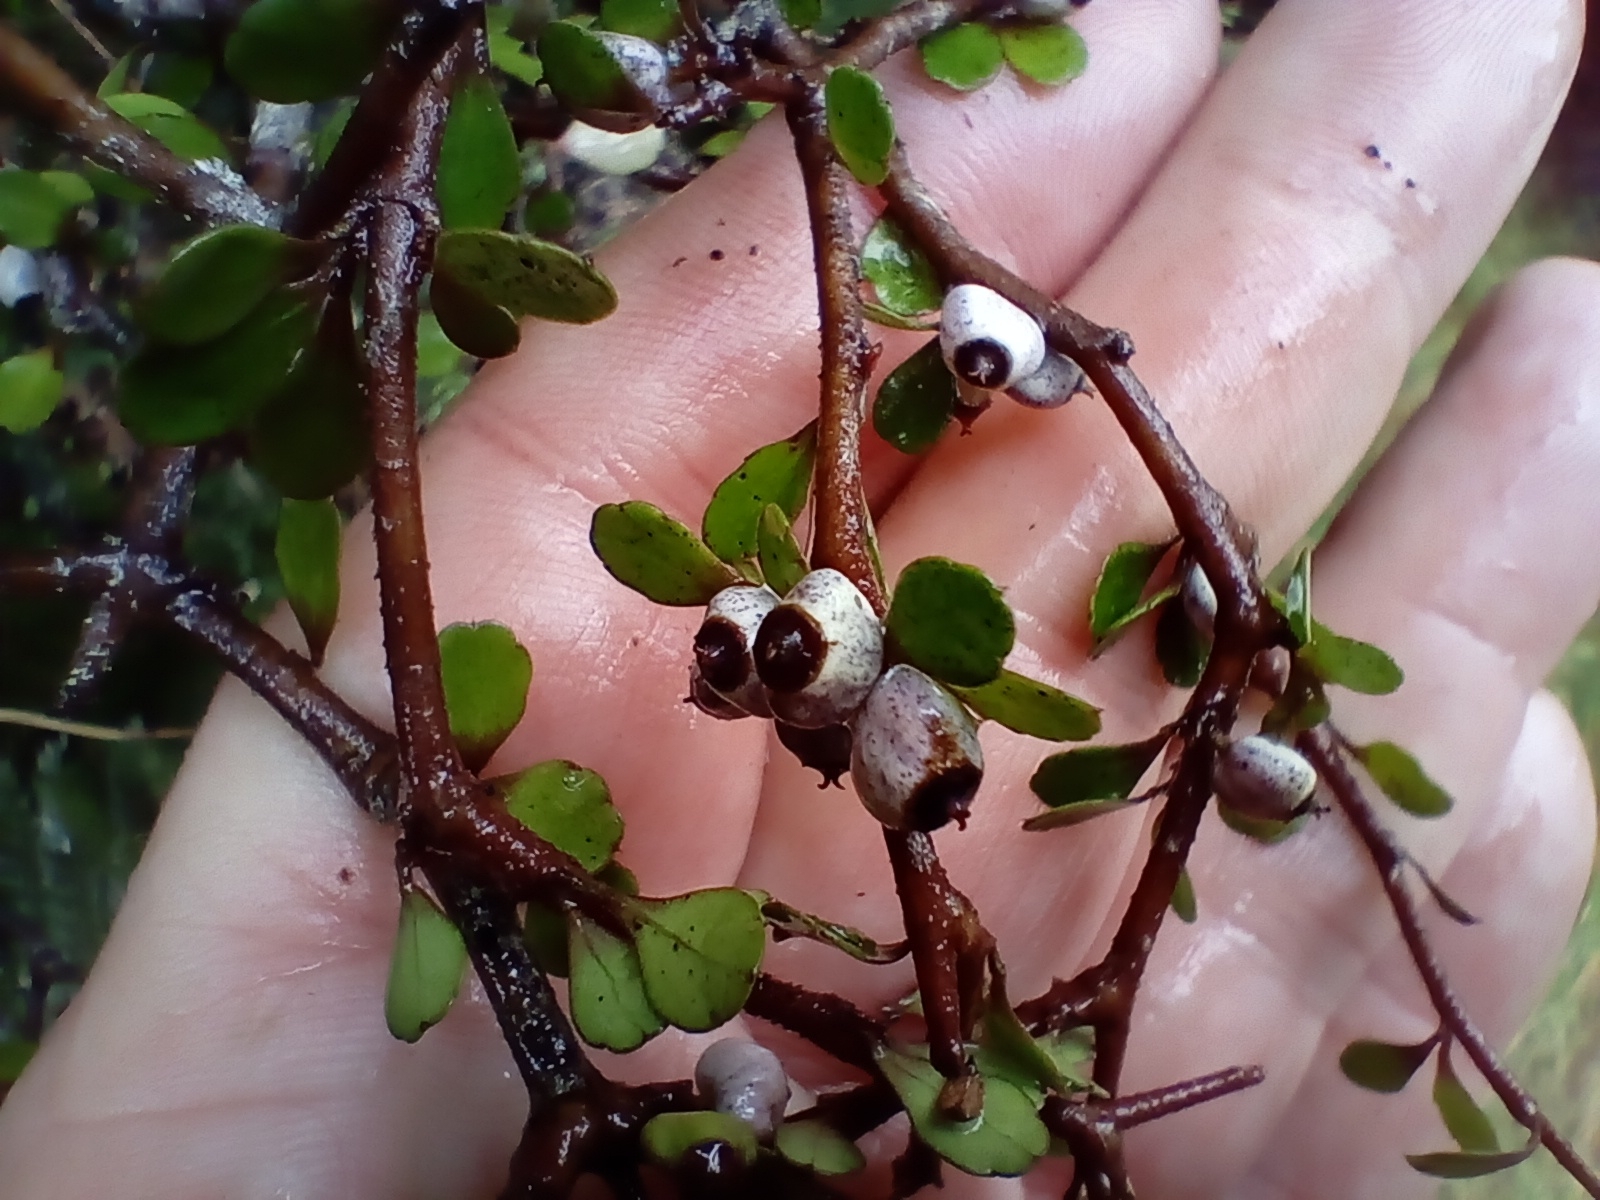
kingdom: Plantae
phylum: Tracheophyta
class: Magnoliopsida
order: Apiales
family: Araliaceae
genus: Raukaua
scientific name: Raukaua anomalus
